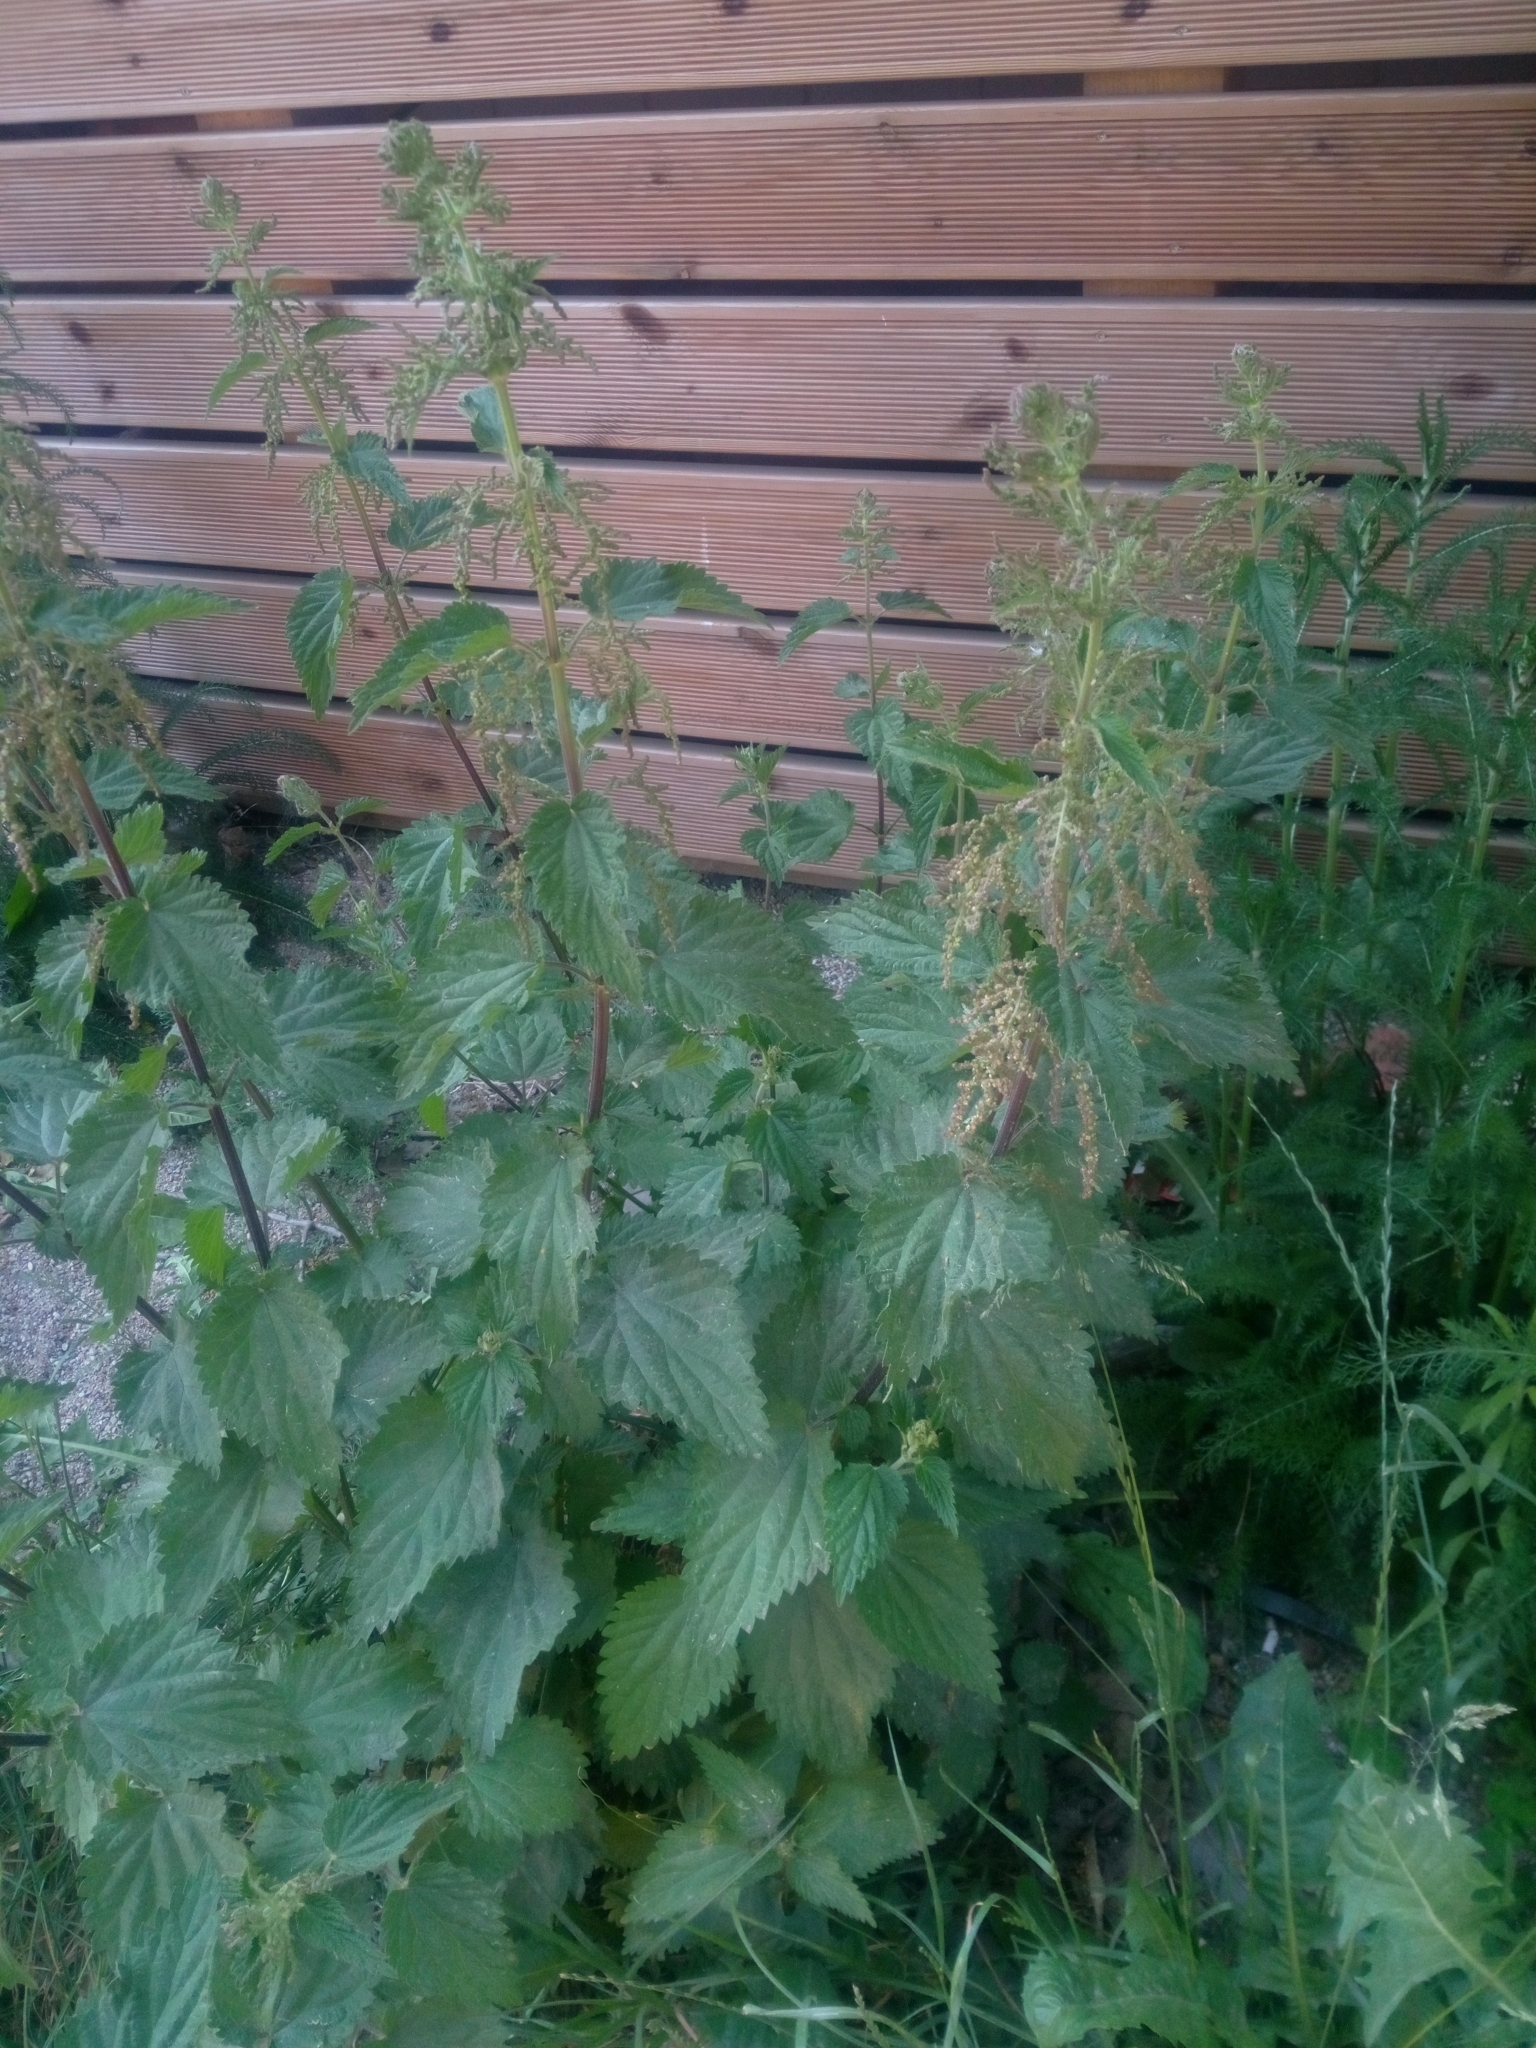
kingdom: Plantae
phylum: Tracheophyta
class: Magnoliopsida
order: Rosales
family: Urticaceae
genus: Urtica
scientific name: Urtica dioica
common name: Common nettle
